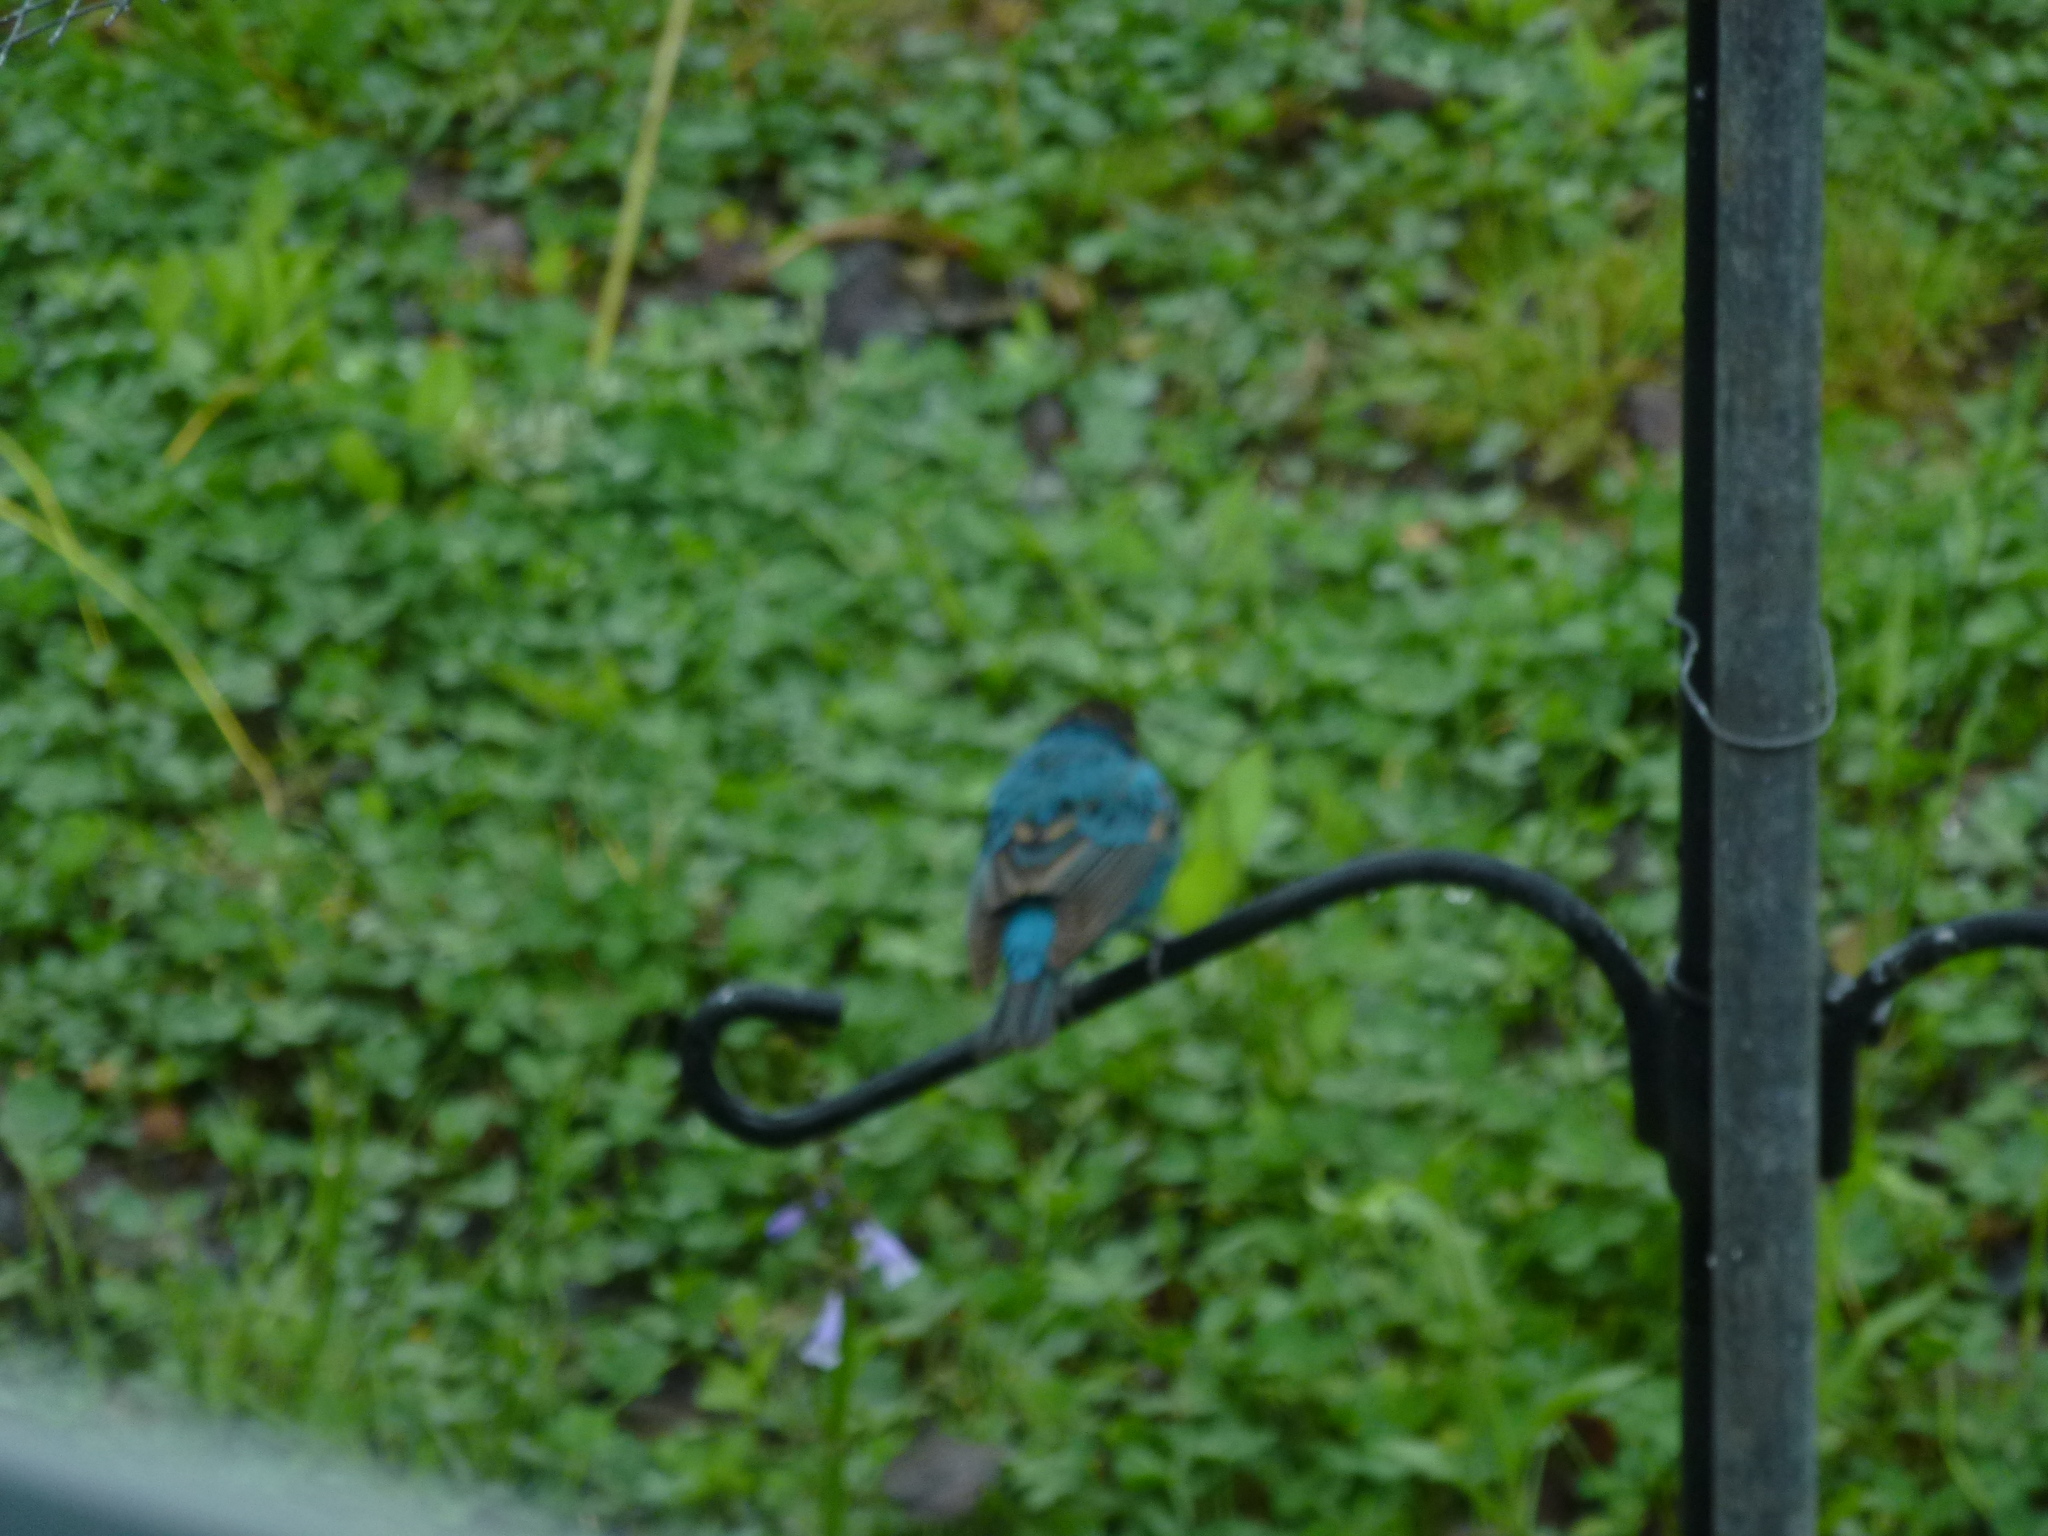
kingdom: Animalia
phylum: Chordata
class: Aves
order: Passeriformes
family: Cardinalidae
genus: Passerina
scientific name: Passerina cyanea
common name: Indigo bunting
